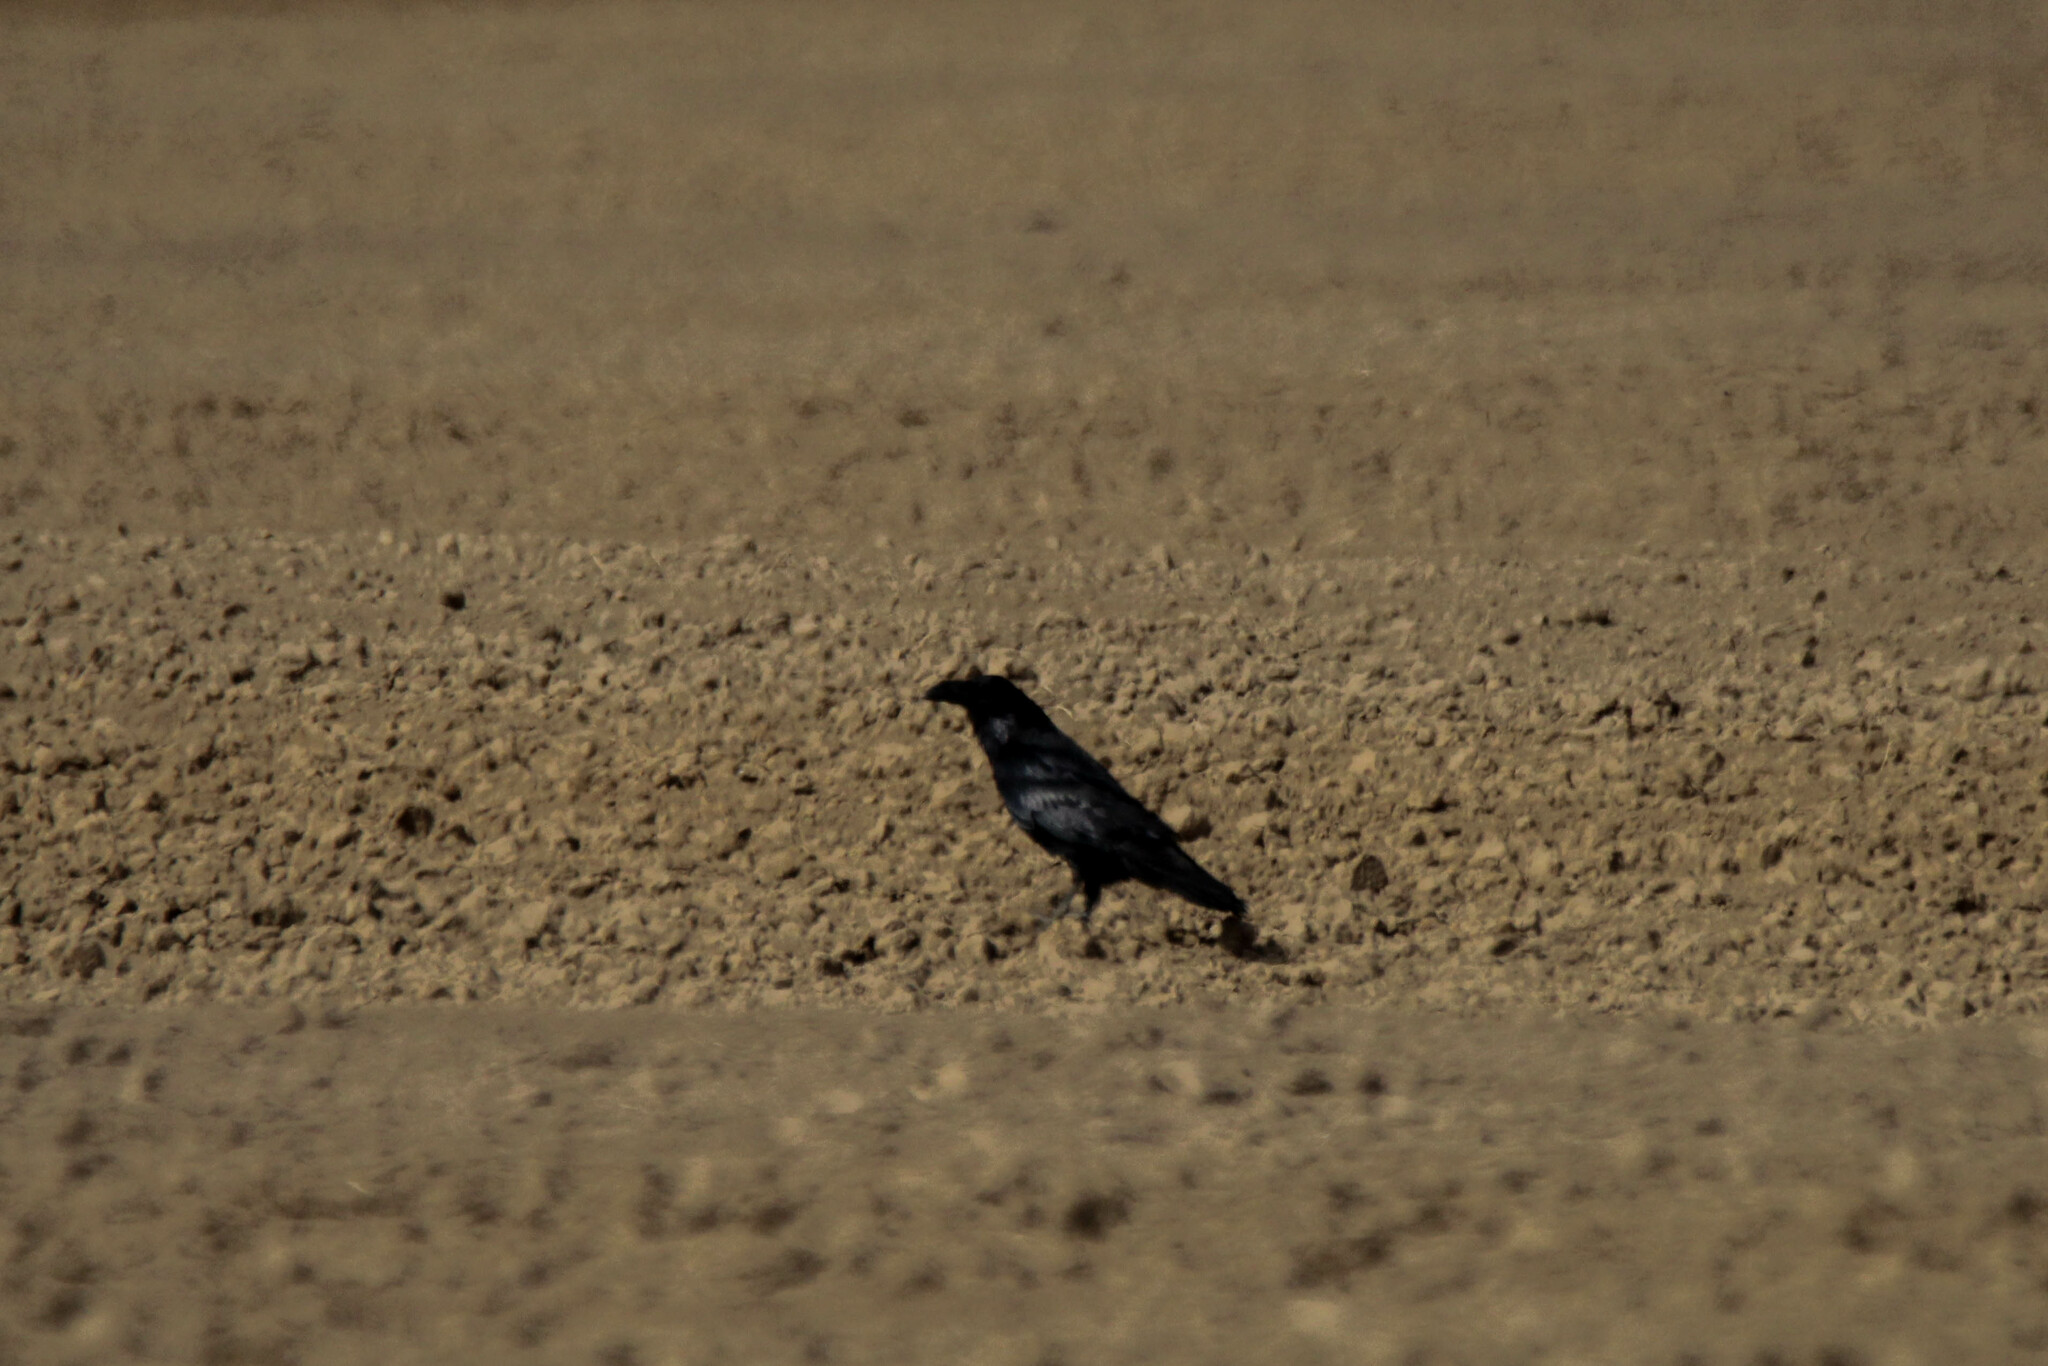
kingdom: Animalia
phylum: Chordata
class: Aves
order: Passeriformes
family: Corvidae
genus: Corvus
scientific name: Corvus corax
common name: Common raven
